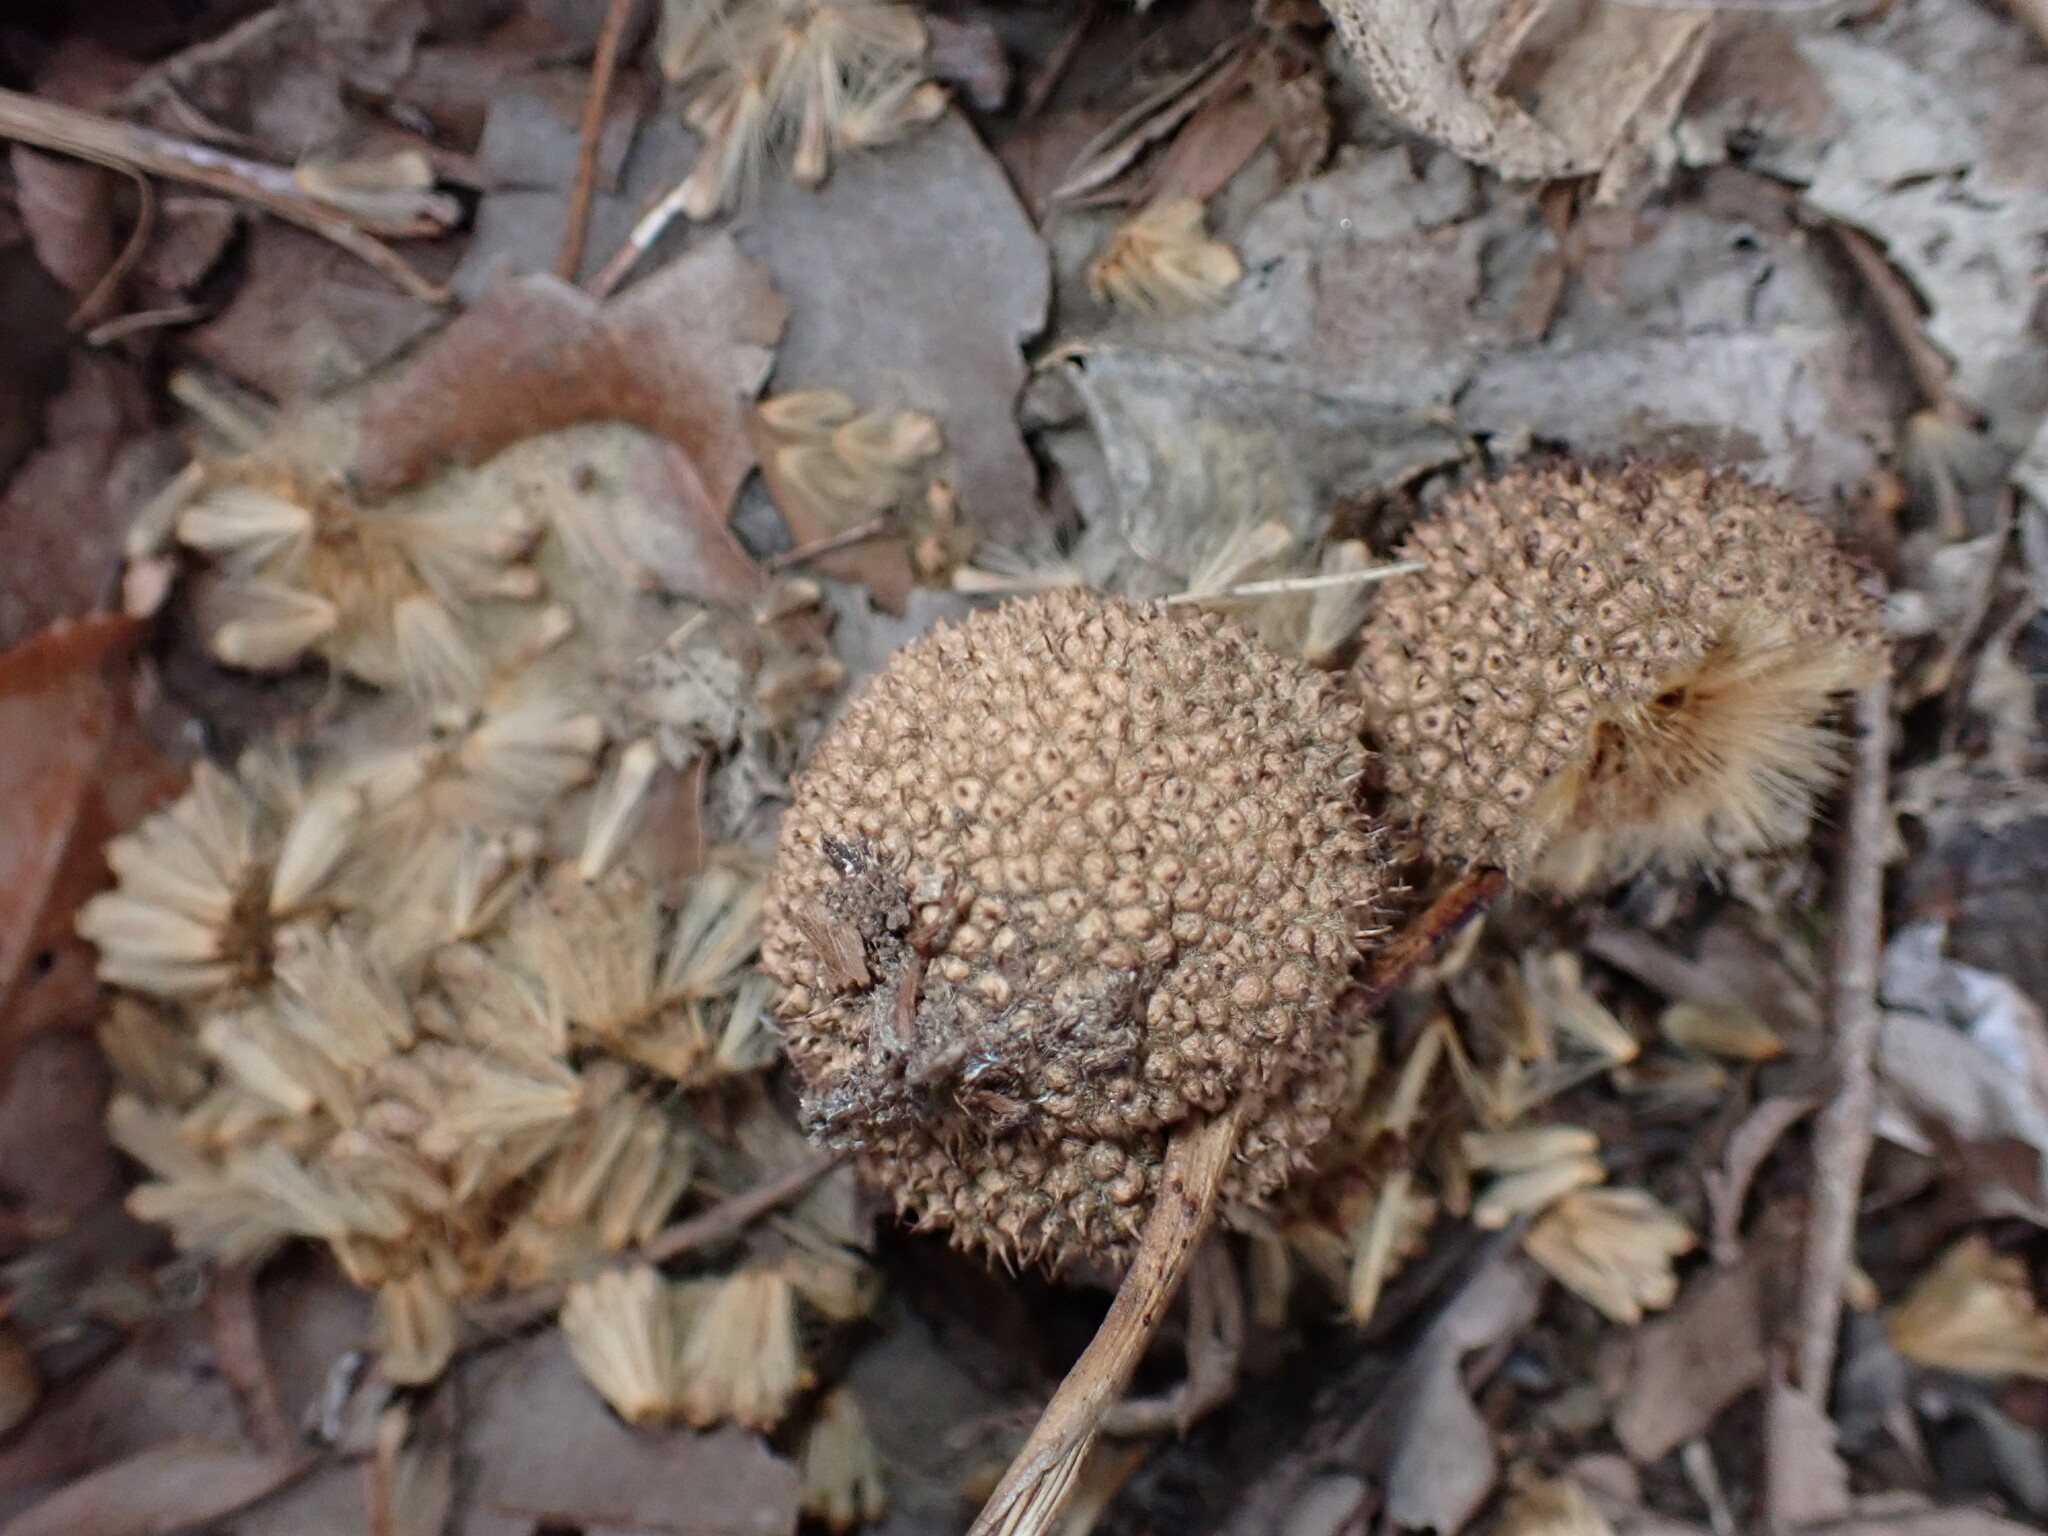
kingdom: Plantae
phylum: Tracheophyta
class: Magnoliopsida
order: Proteales
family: Platanaceae
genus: Platanus
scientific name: Platanus occidentalis
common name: American sycamore
